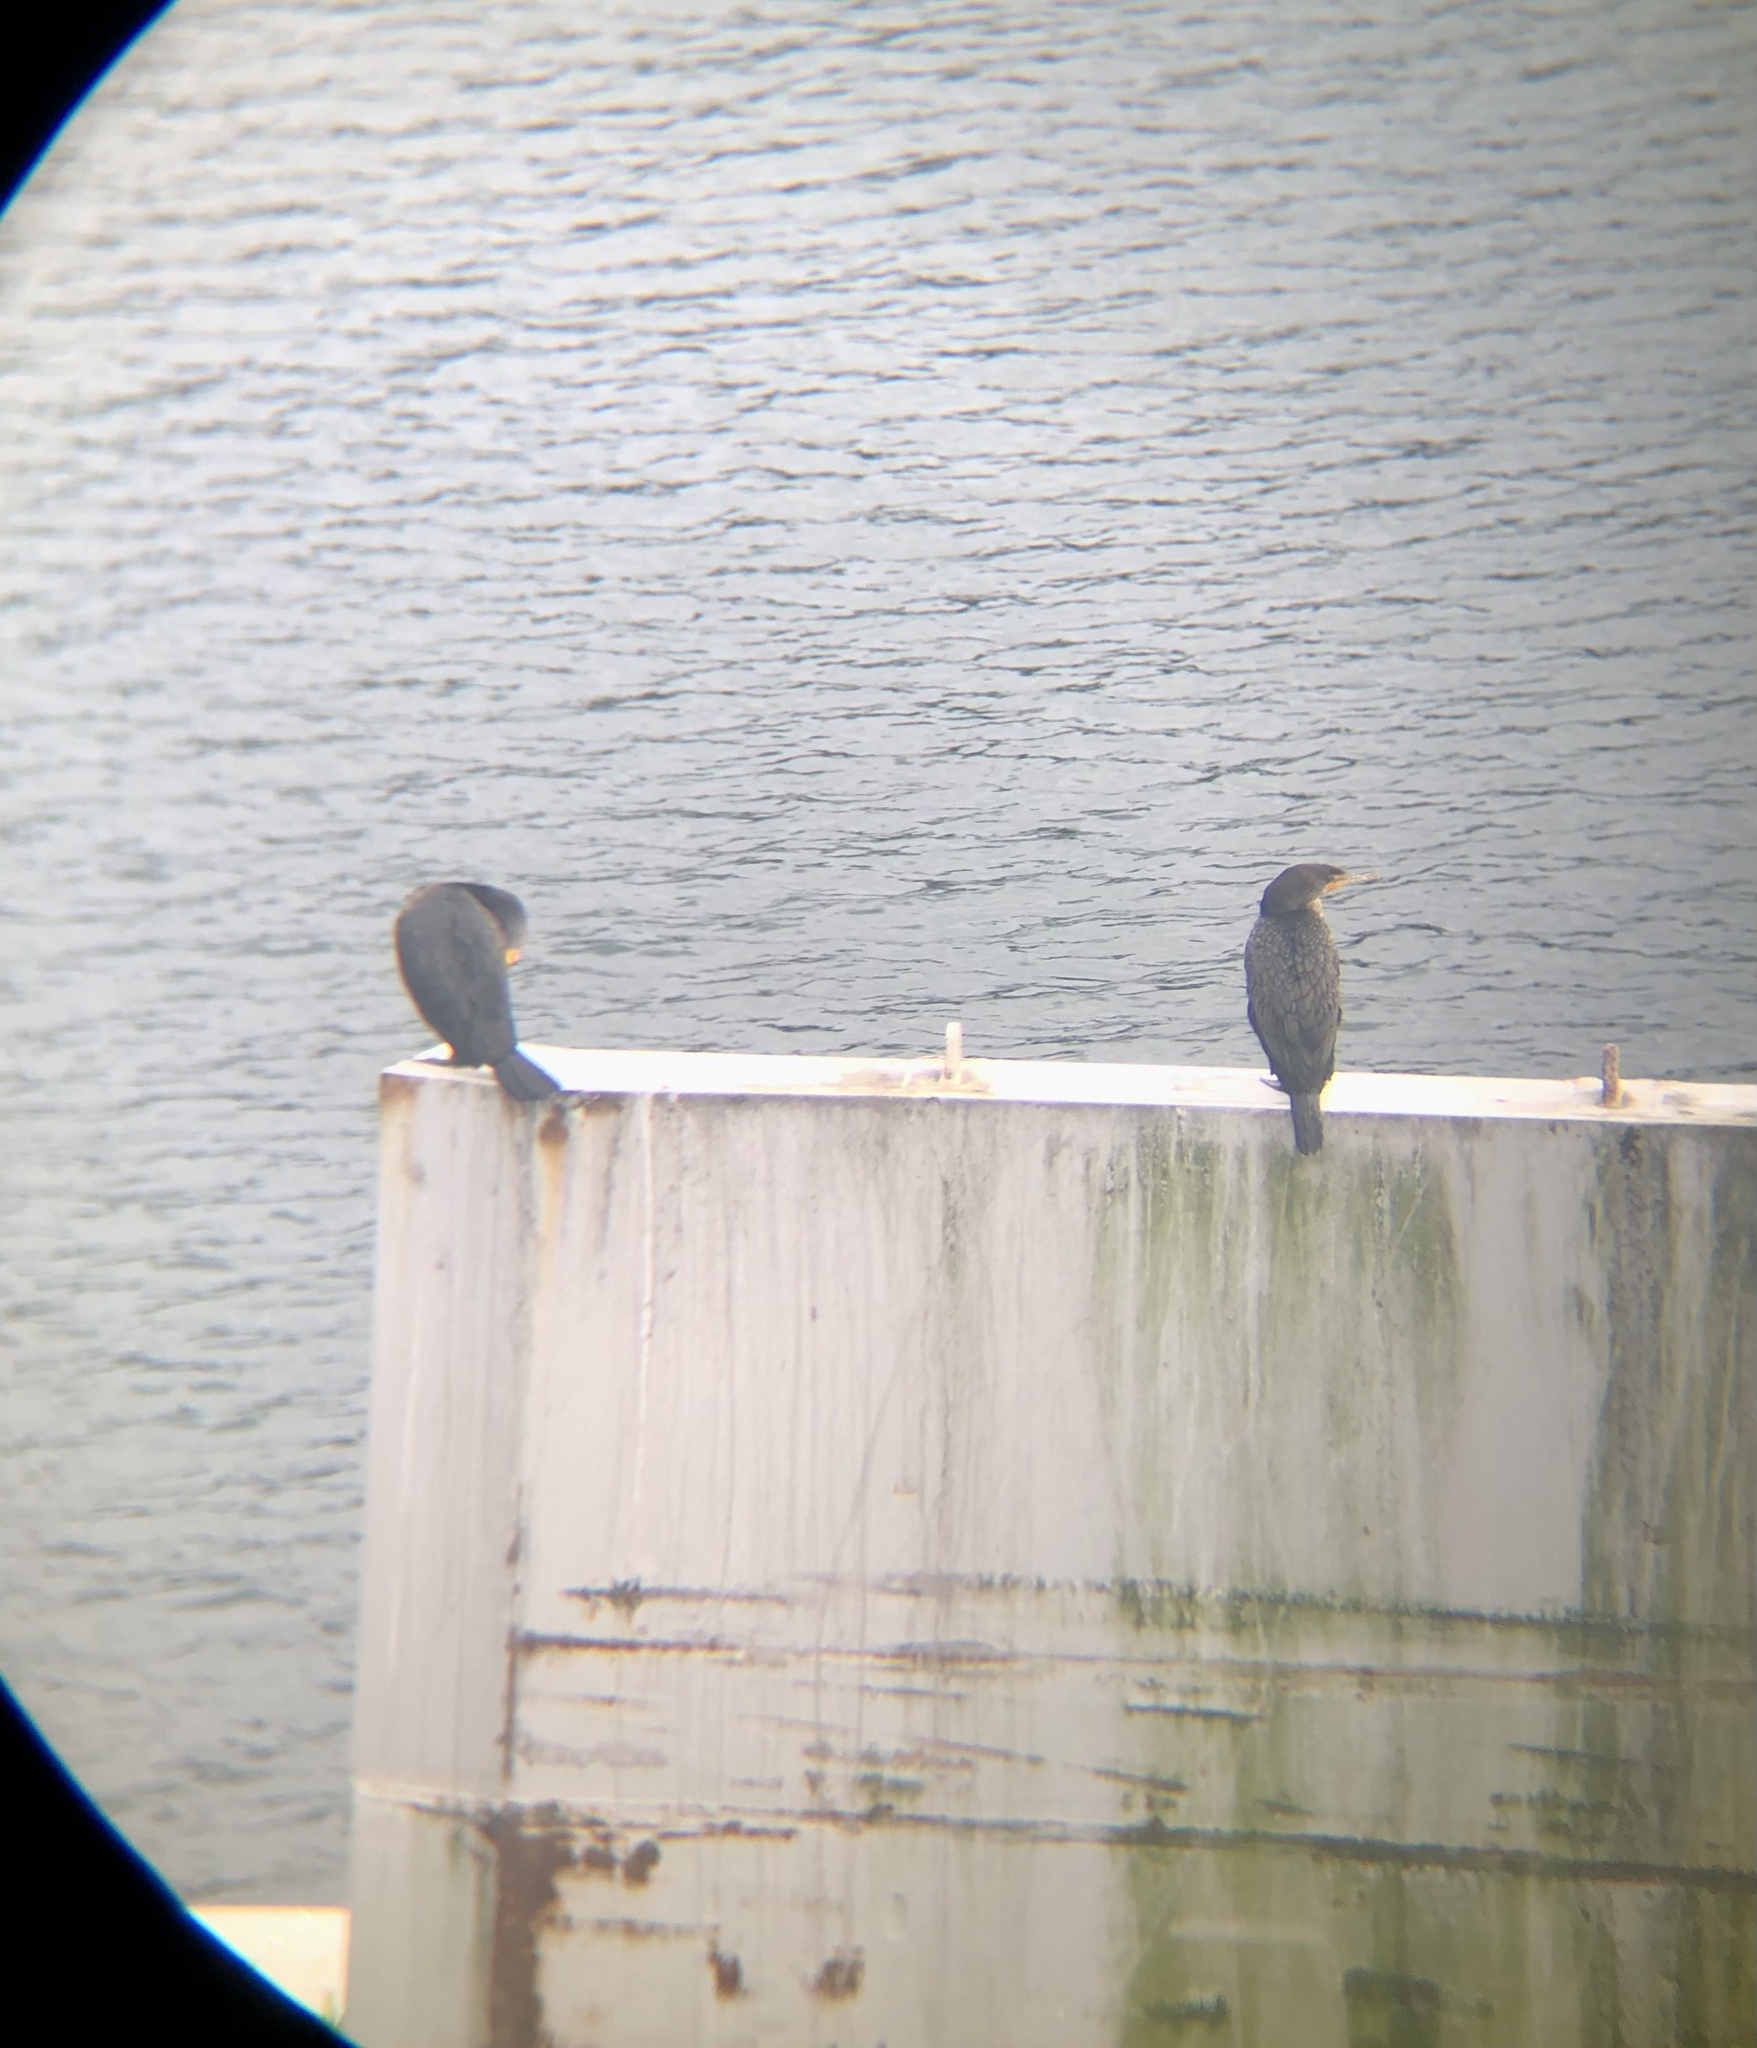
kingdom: Animalia
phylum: Chordata
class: Aves
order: Suliformes
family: Phalacrocoracidae
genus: Phalacrocorax
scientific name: Phalacrocorax auritus
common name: Double-crested cormorant
